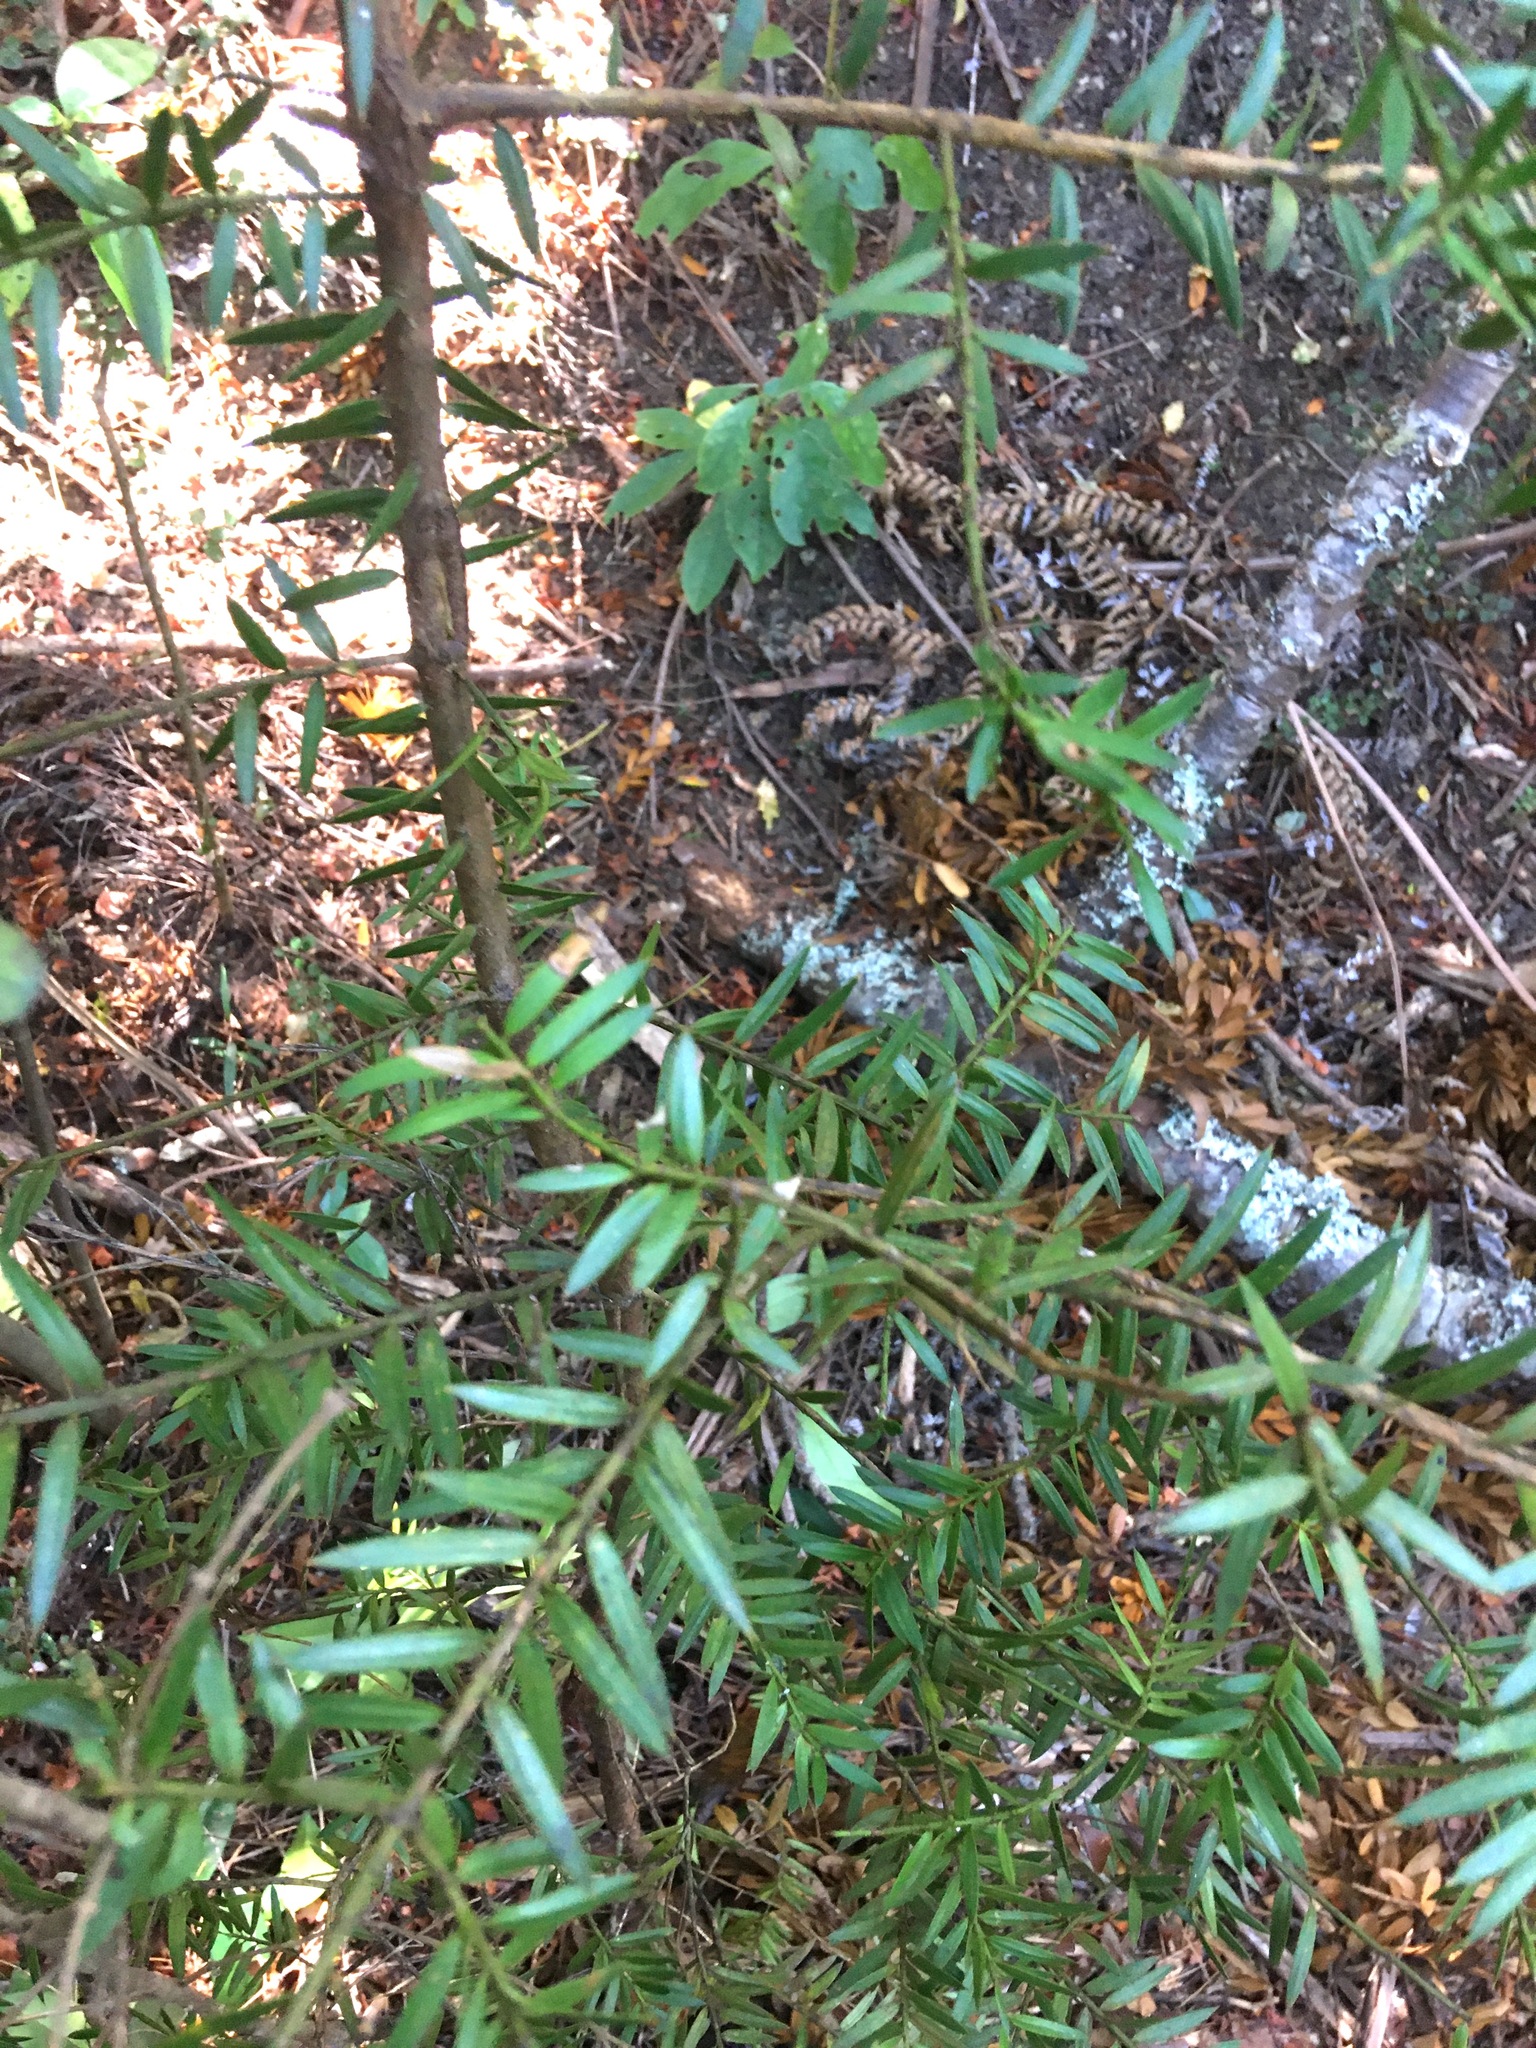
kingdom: Plantae
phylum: Tracheophyta
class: Pinopsida
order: Pinales
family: Podocarpaceae
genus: Podocarpus
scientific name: Podocarpus totara
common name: Totara
